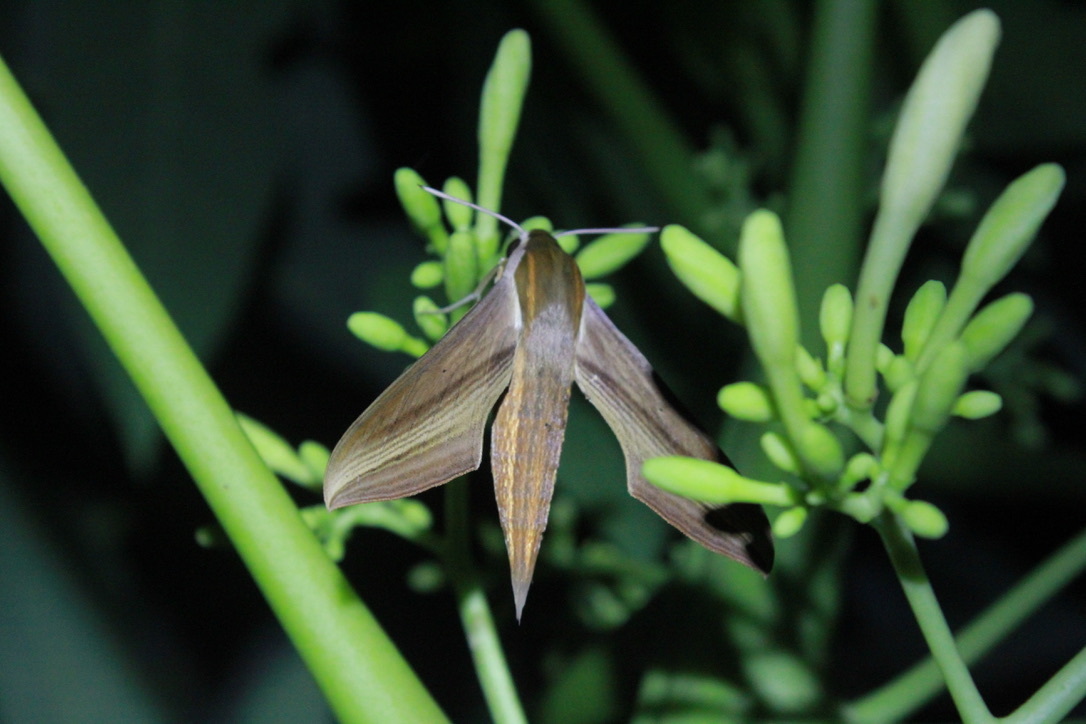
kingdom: Animalia
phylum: Arthropoda
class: Insecta
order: Lepidoptera
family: Sphingidae
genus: Xylophanes
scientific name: Xylophanes tersa
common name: Tersa sphinx
